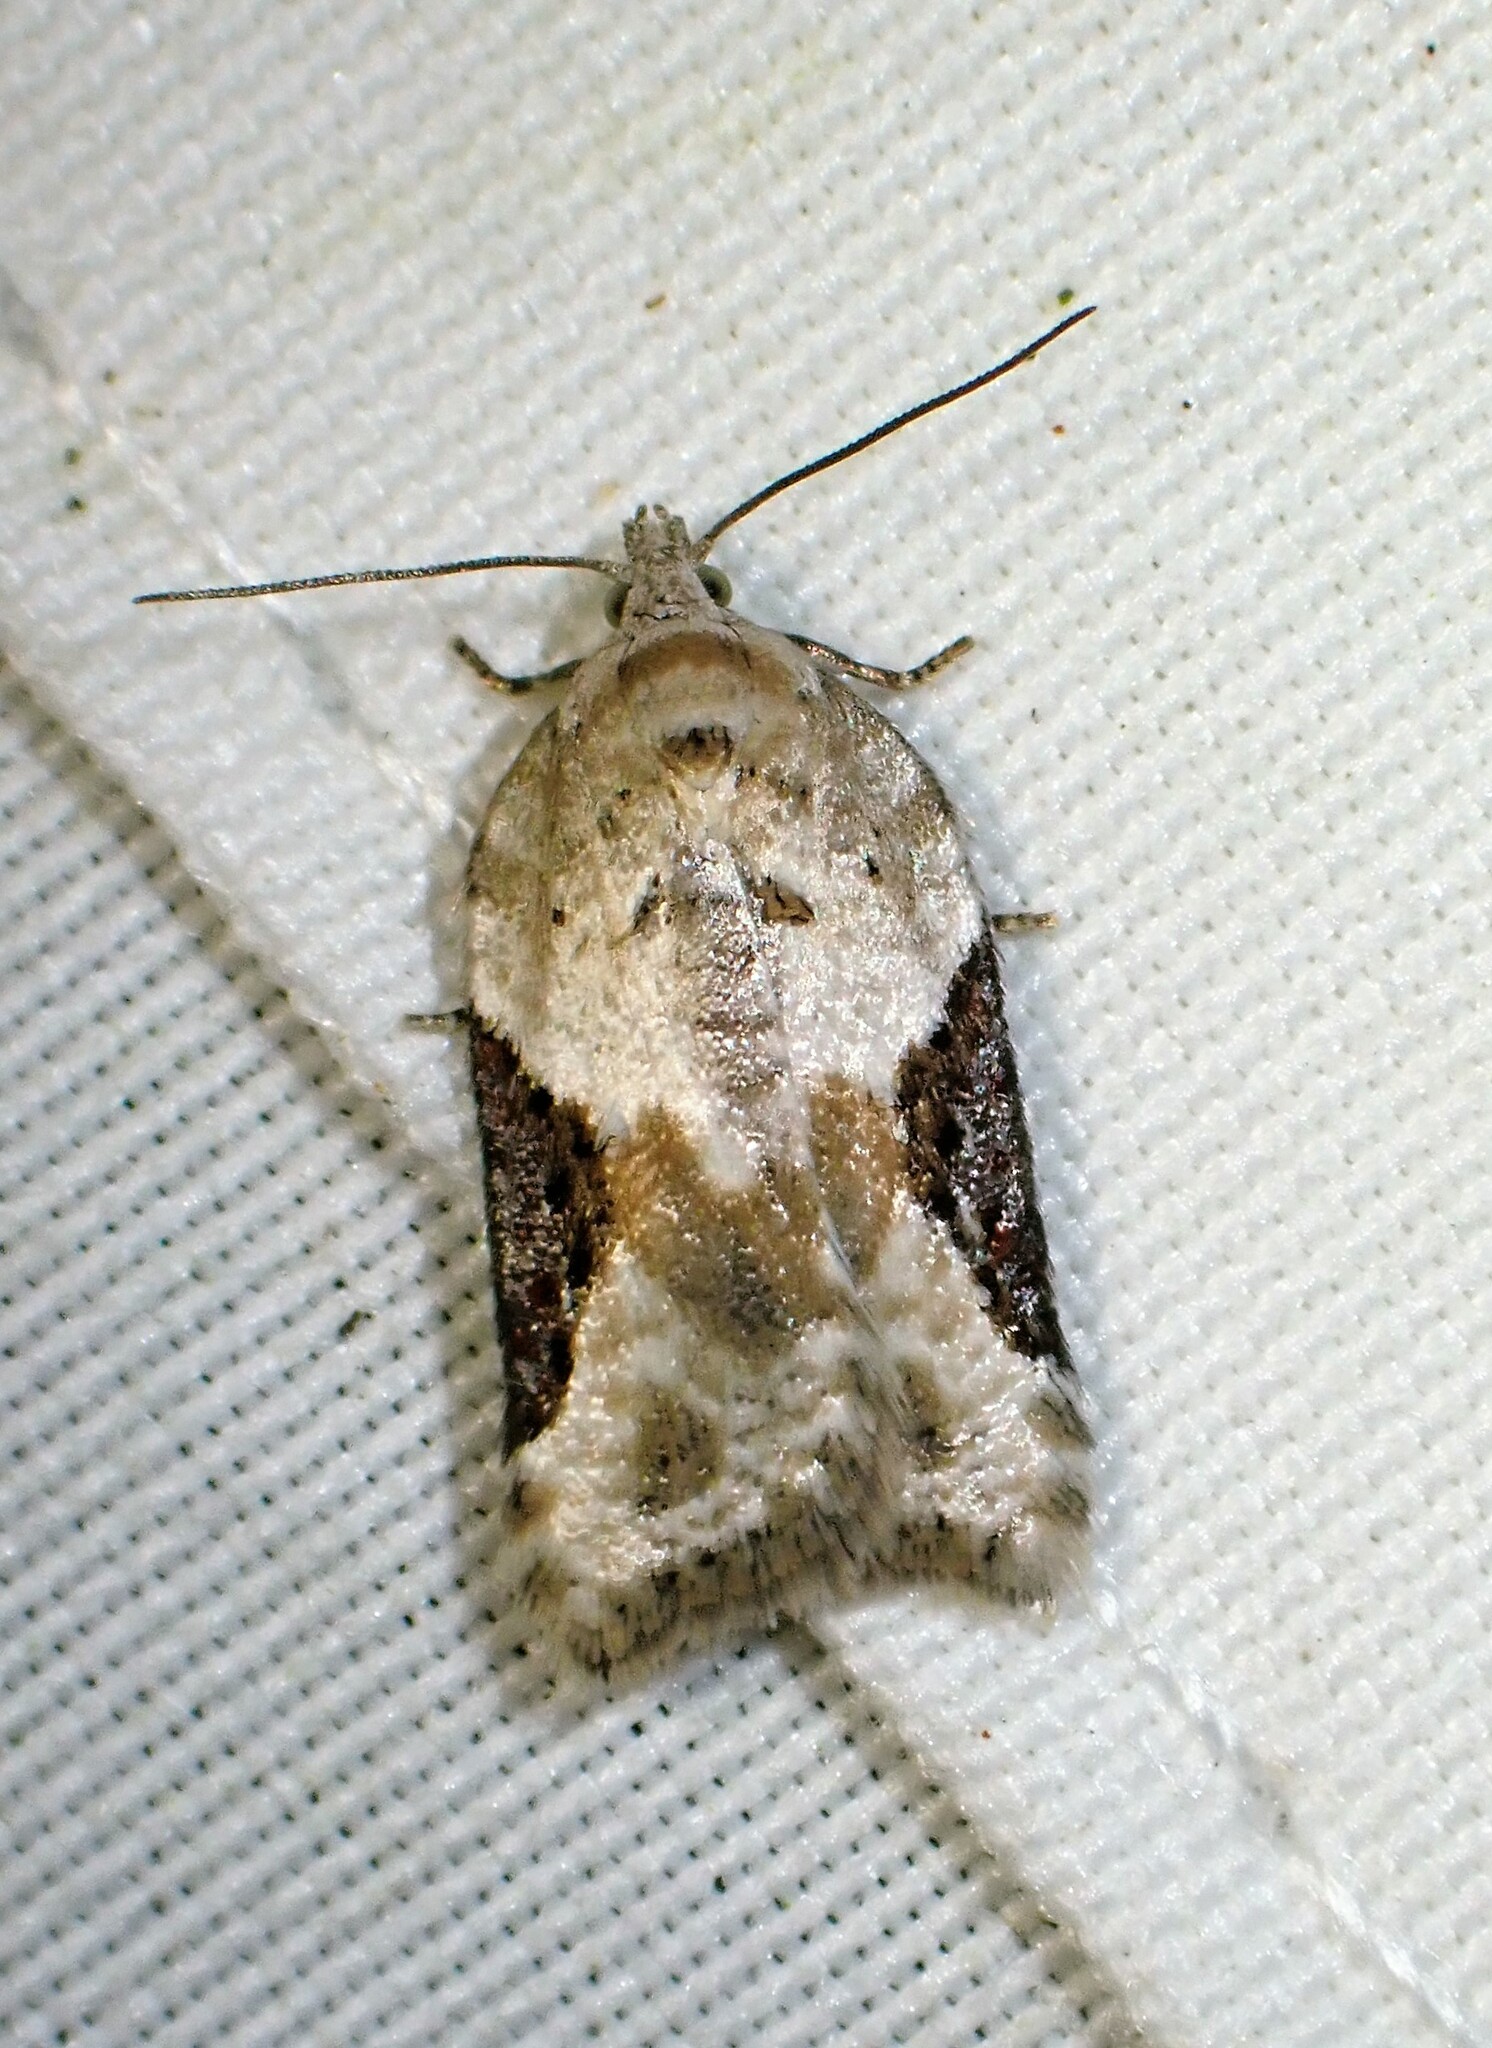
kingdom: Animalia
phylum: Arthropoda
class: Insecta
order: Lepidoptera
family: Tortricidae
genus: Acleris
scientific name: Acleris forbesana
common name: Forbes' acleris moth
